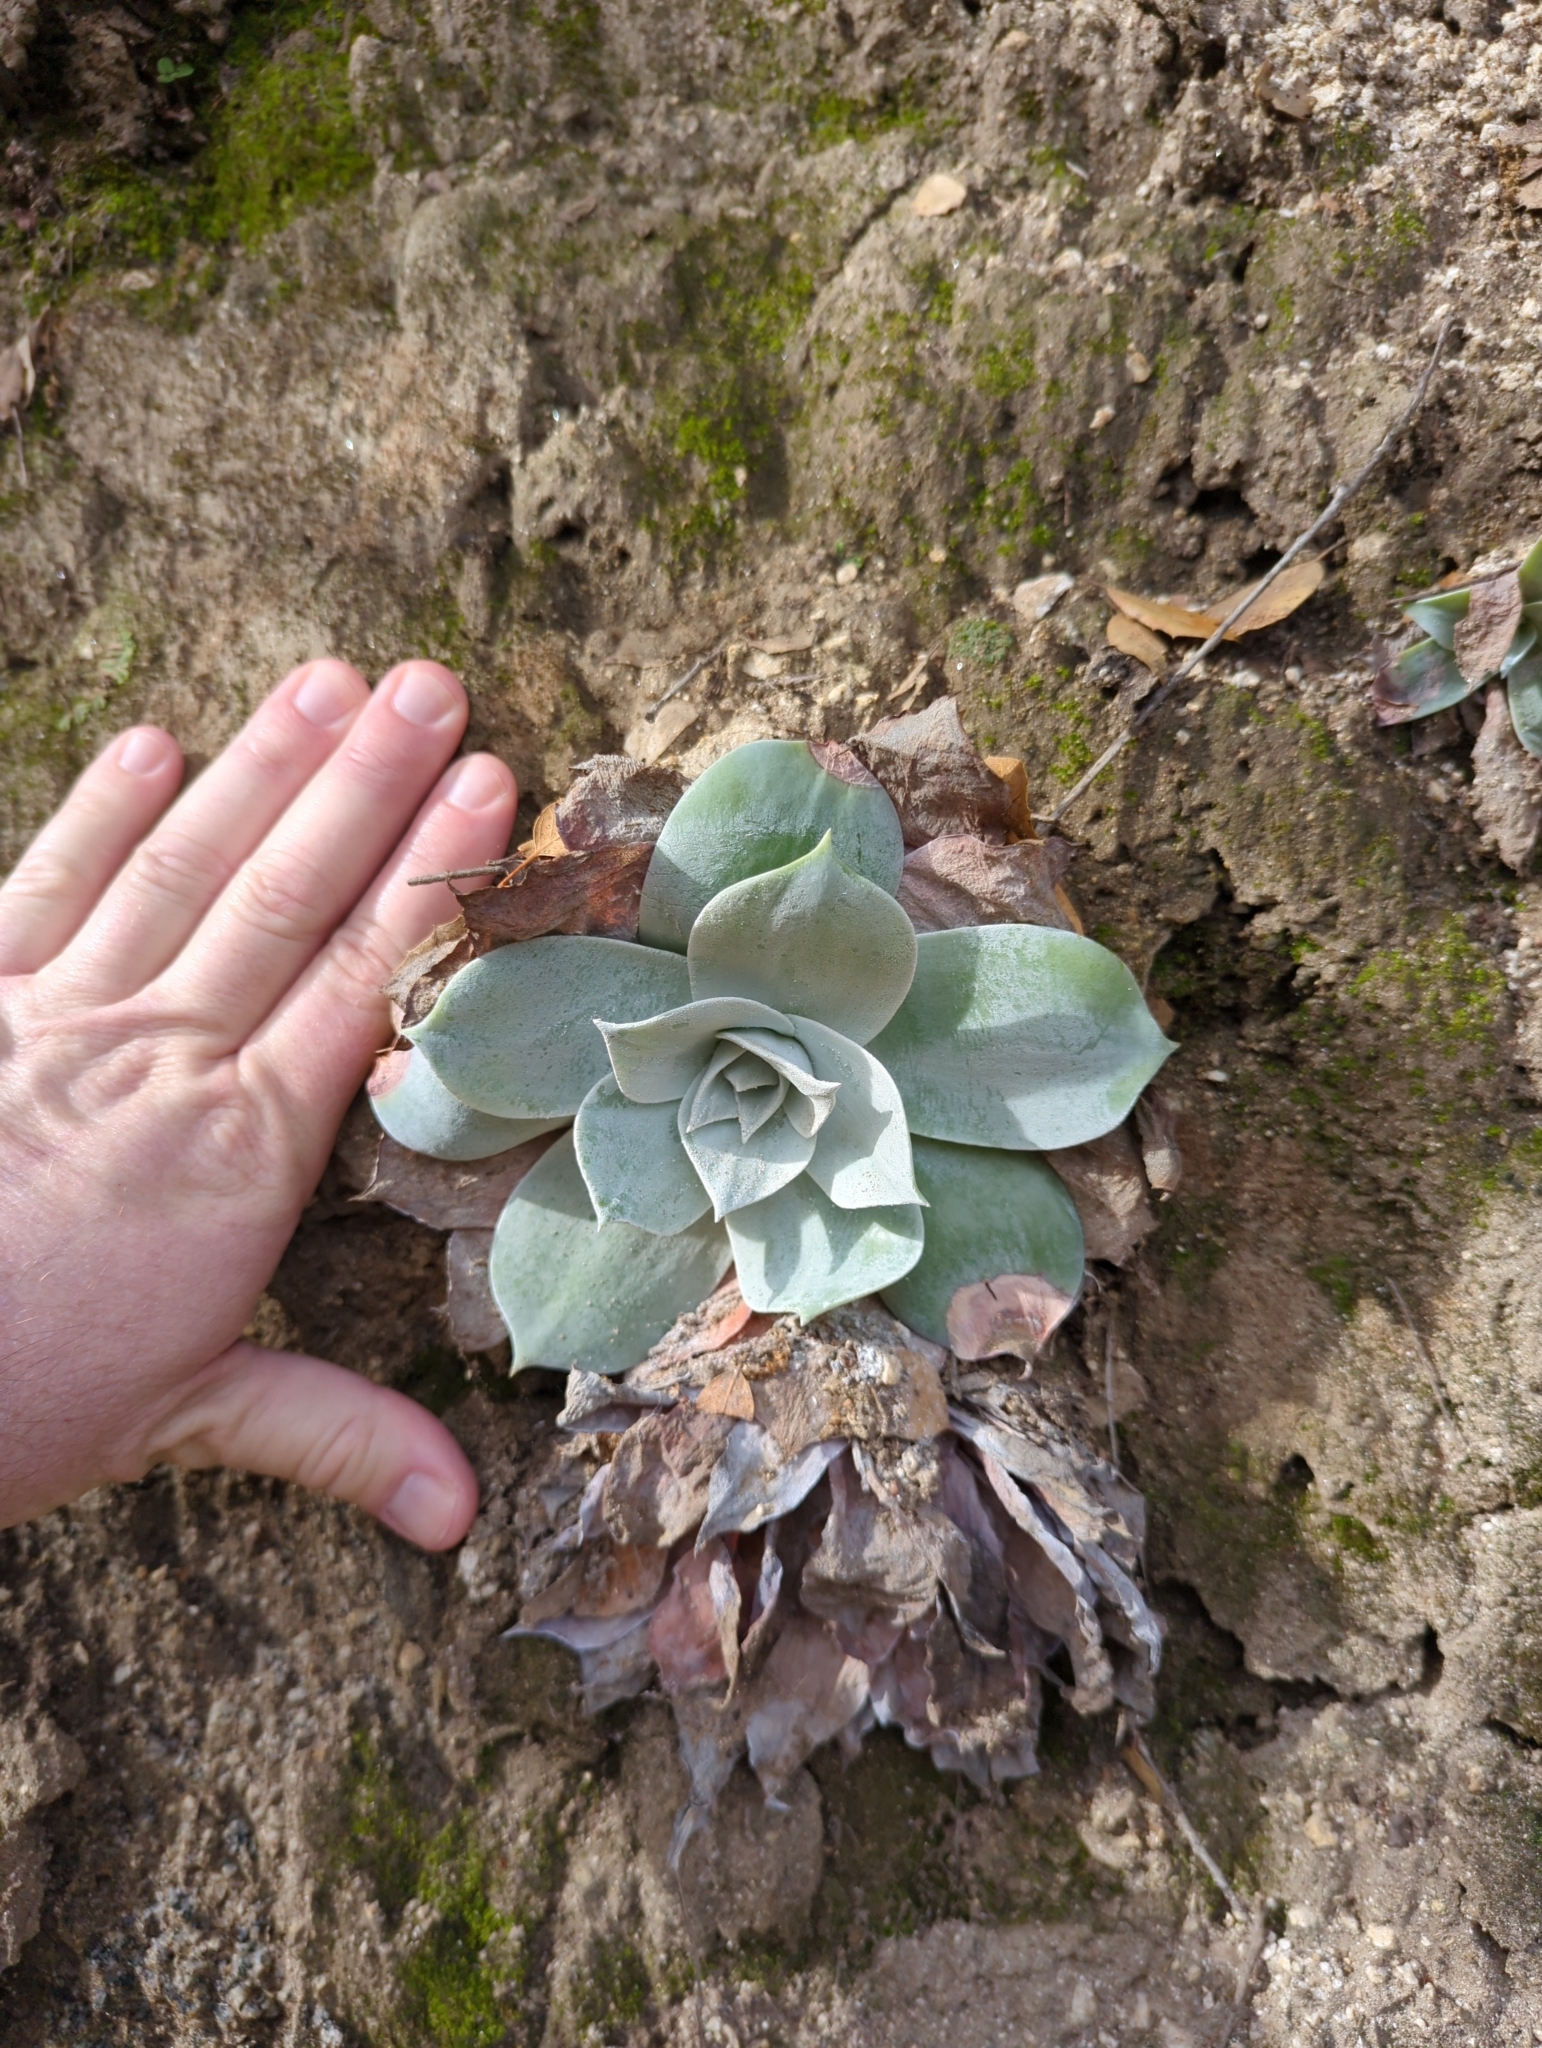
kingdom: Plantae
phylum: Tracheophyta
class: Magnoliopsida
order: Saxifragales
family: Crassulaceae
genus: Dudleya
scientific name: Dudleya pulverulenta
